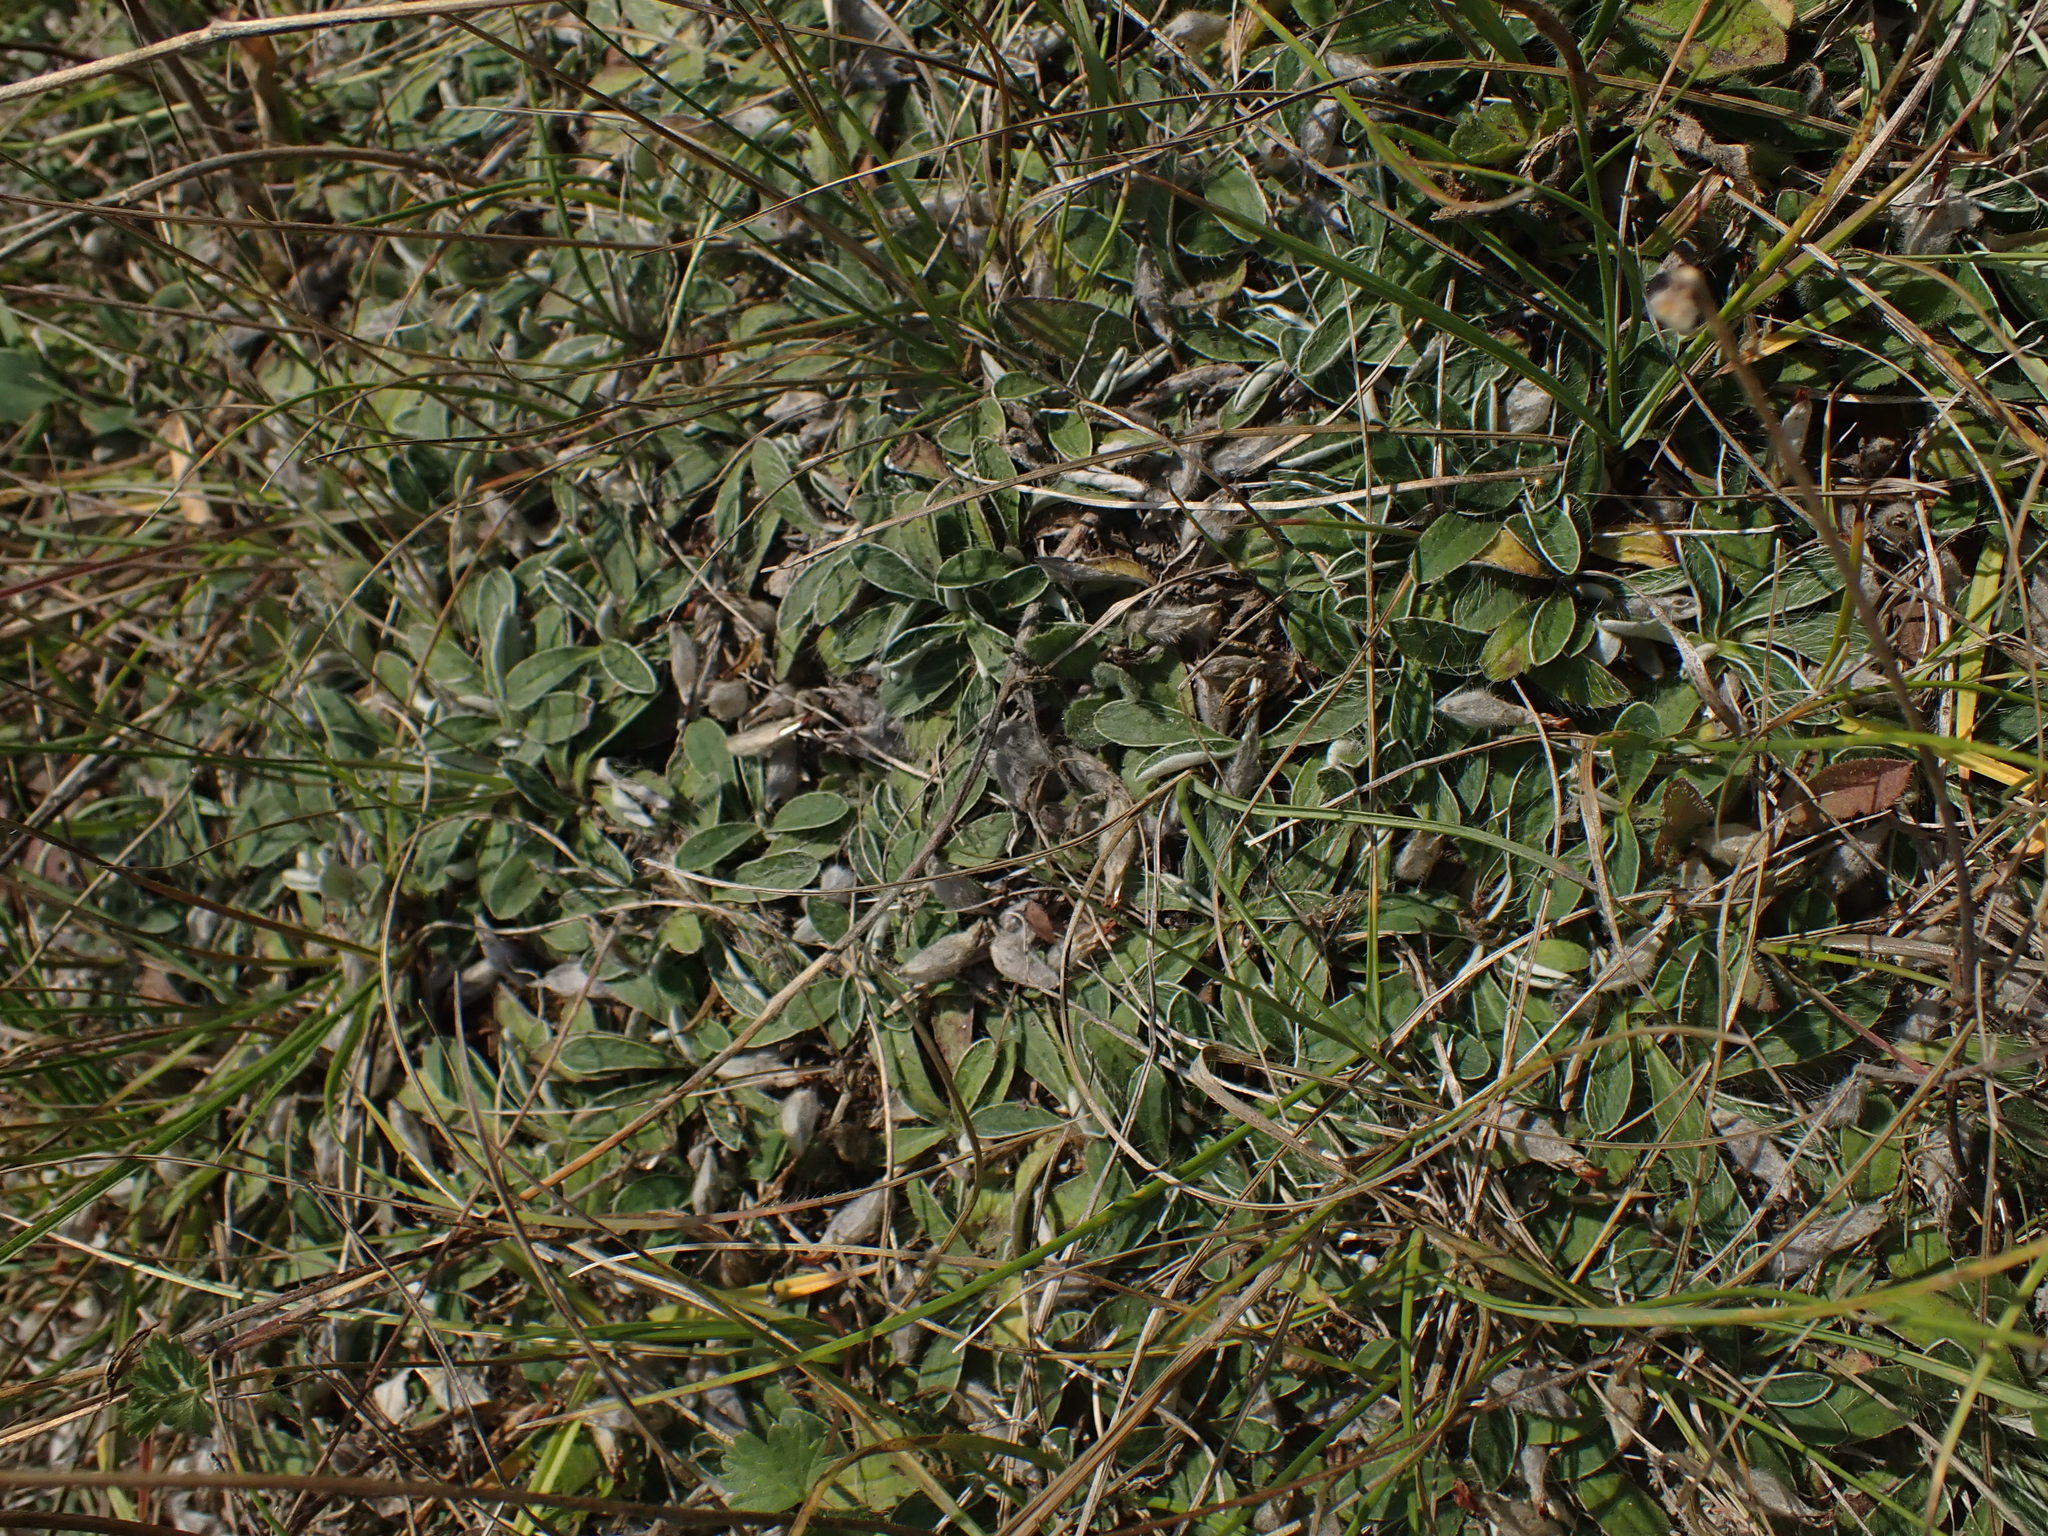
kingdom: Plantae
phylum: Tracheophyta
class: Magnoliopsida
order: Asterales
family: Asteraceae
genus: Pilosella
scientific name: Pilosella officinarum
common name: Mouse-ear hawkweed
